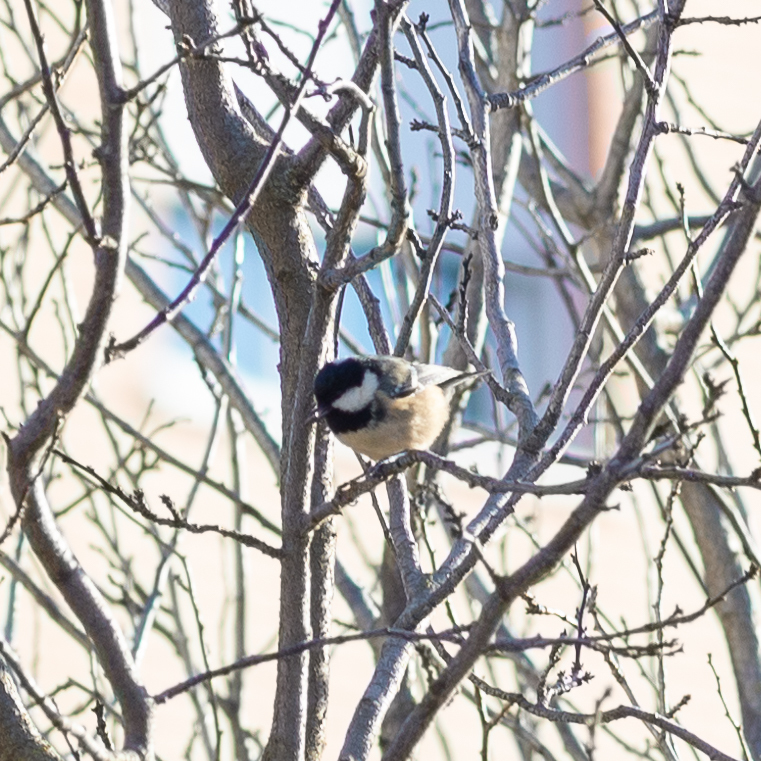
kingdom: Animalia
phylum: Chordata
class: Aves
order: Passeriformes
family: Paridae
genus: Periparus
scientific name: Periparus ater
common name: Coal tit
